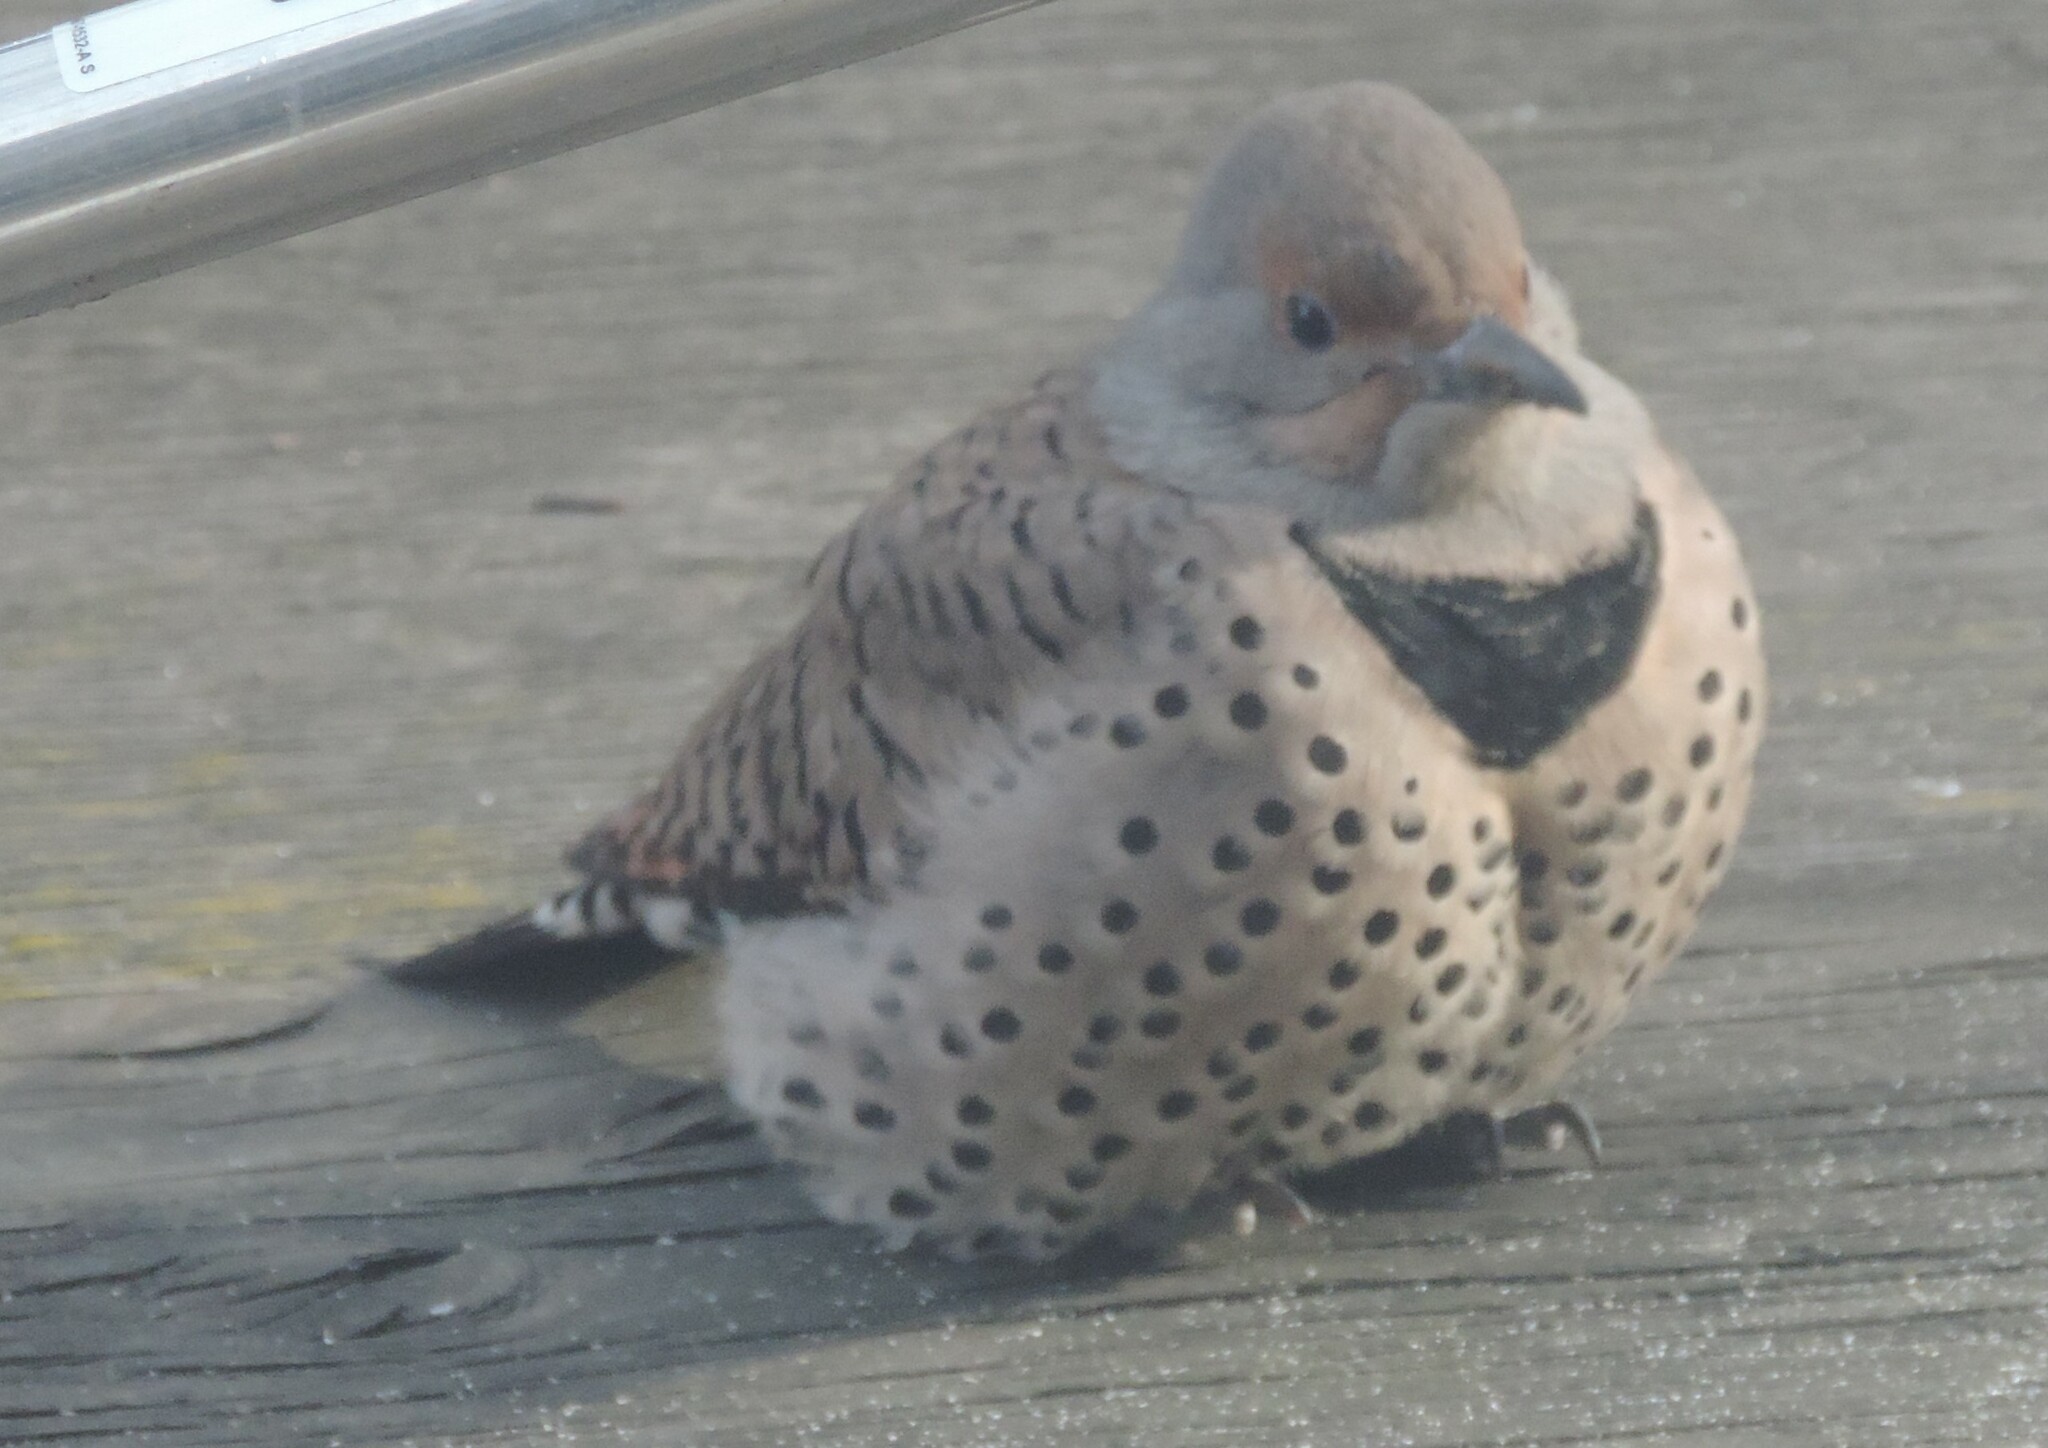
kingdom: Animalia
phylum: Chordata
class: Aves
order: Piciformes
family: Picidae
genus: Colaptes
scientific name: Colaptes auratus
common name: Northern flicker
